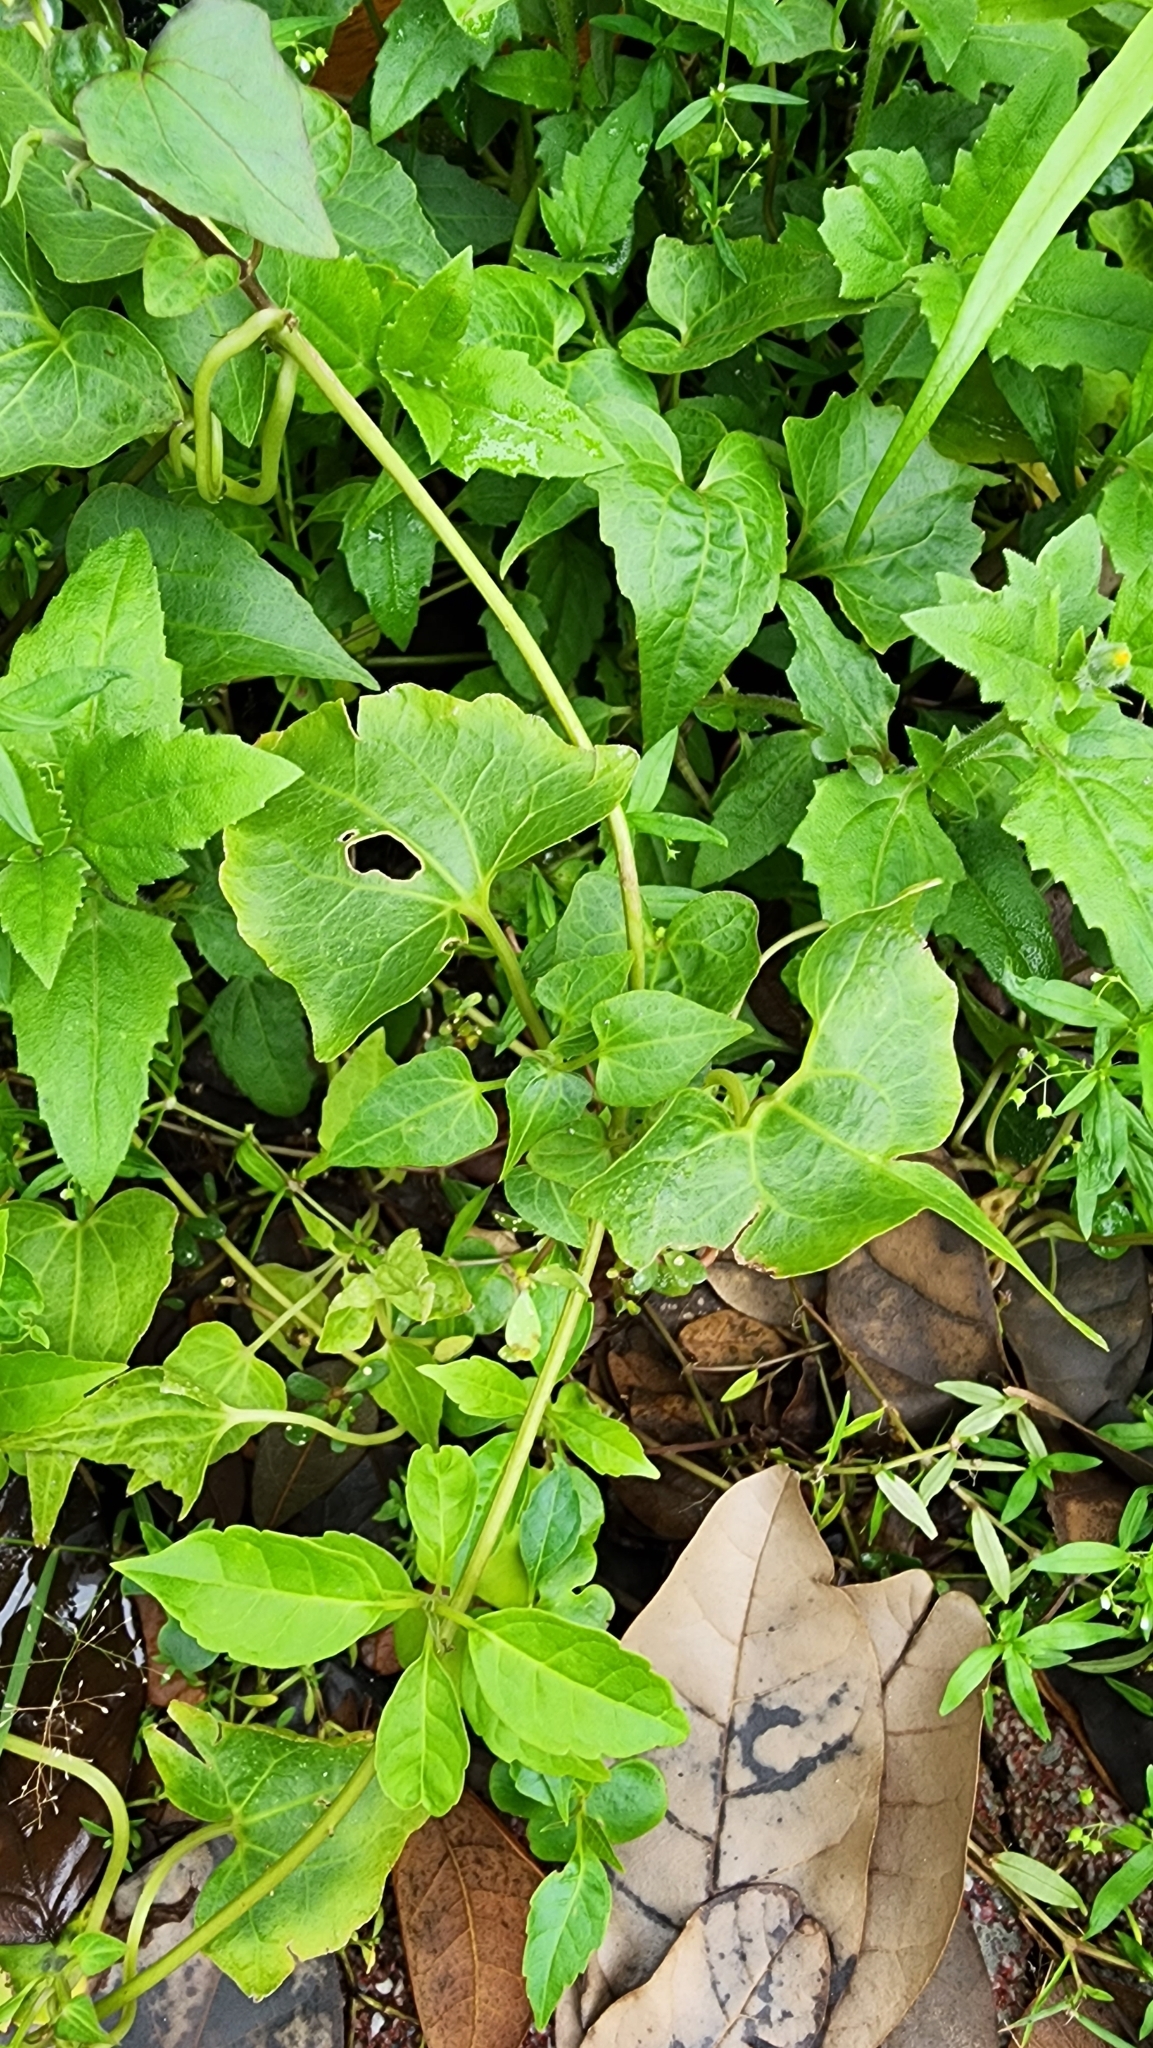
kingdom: Plantae
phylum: Tracheophyta
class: Magnoliopsida
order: Asterales
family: Asteraceae
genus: Mikania
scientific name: Mikania micrantha
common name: Mile-a-minute
